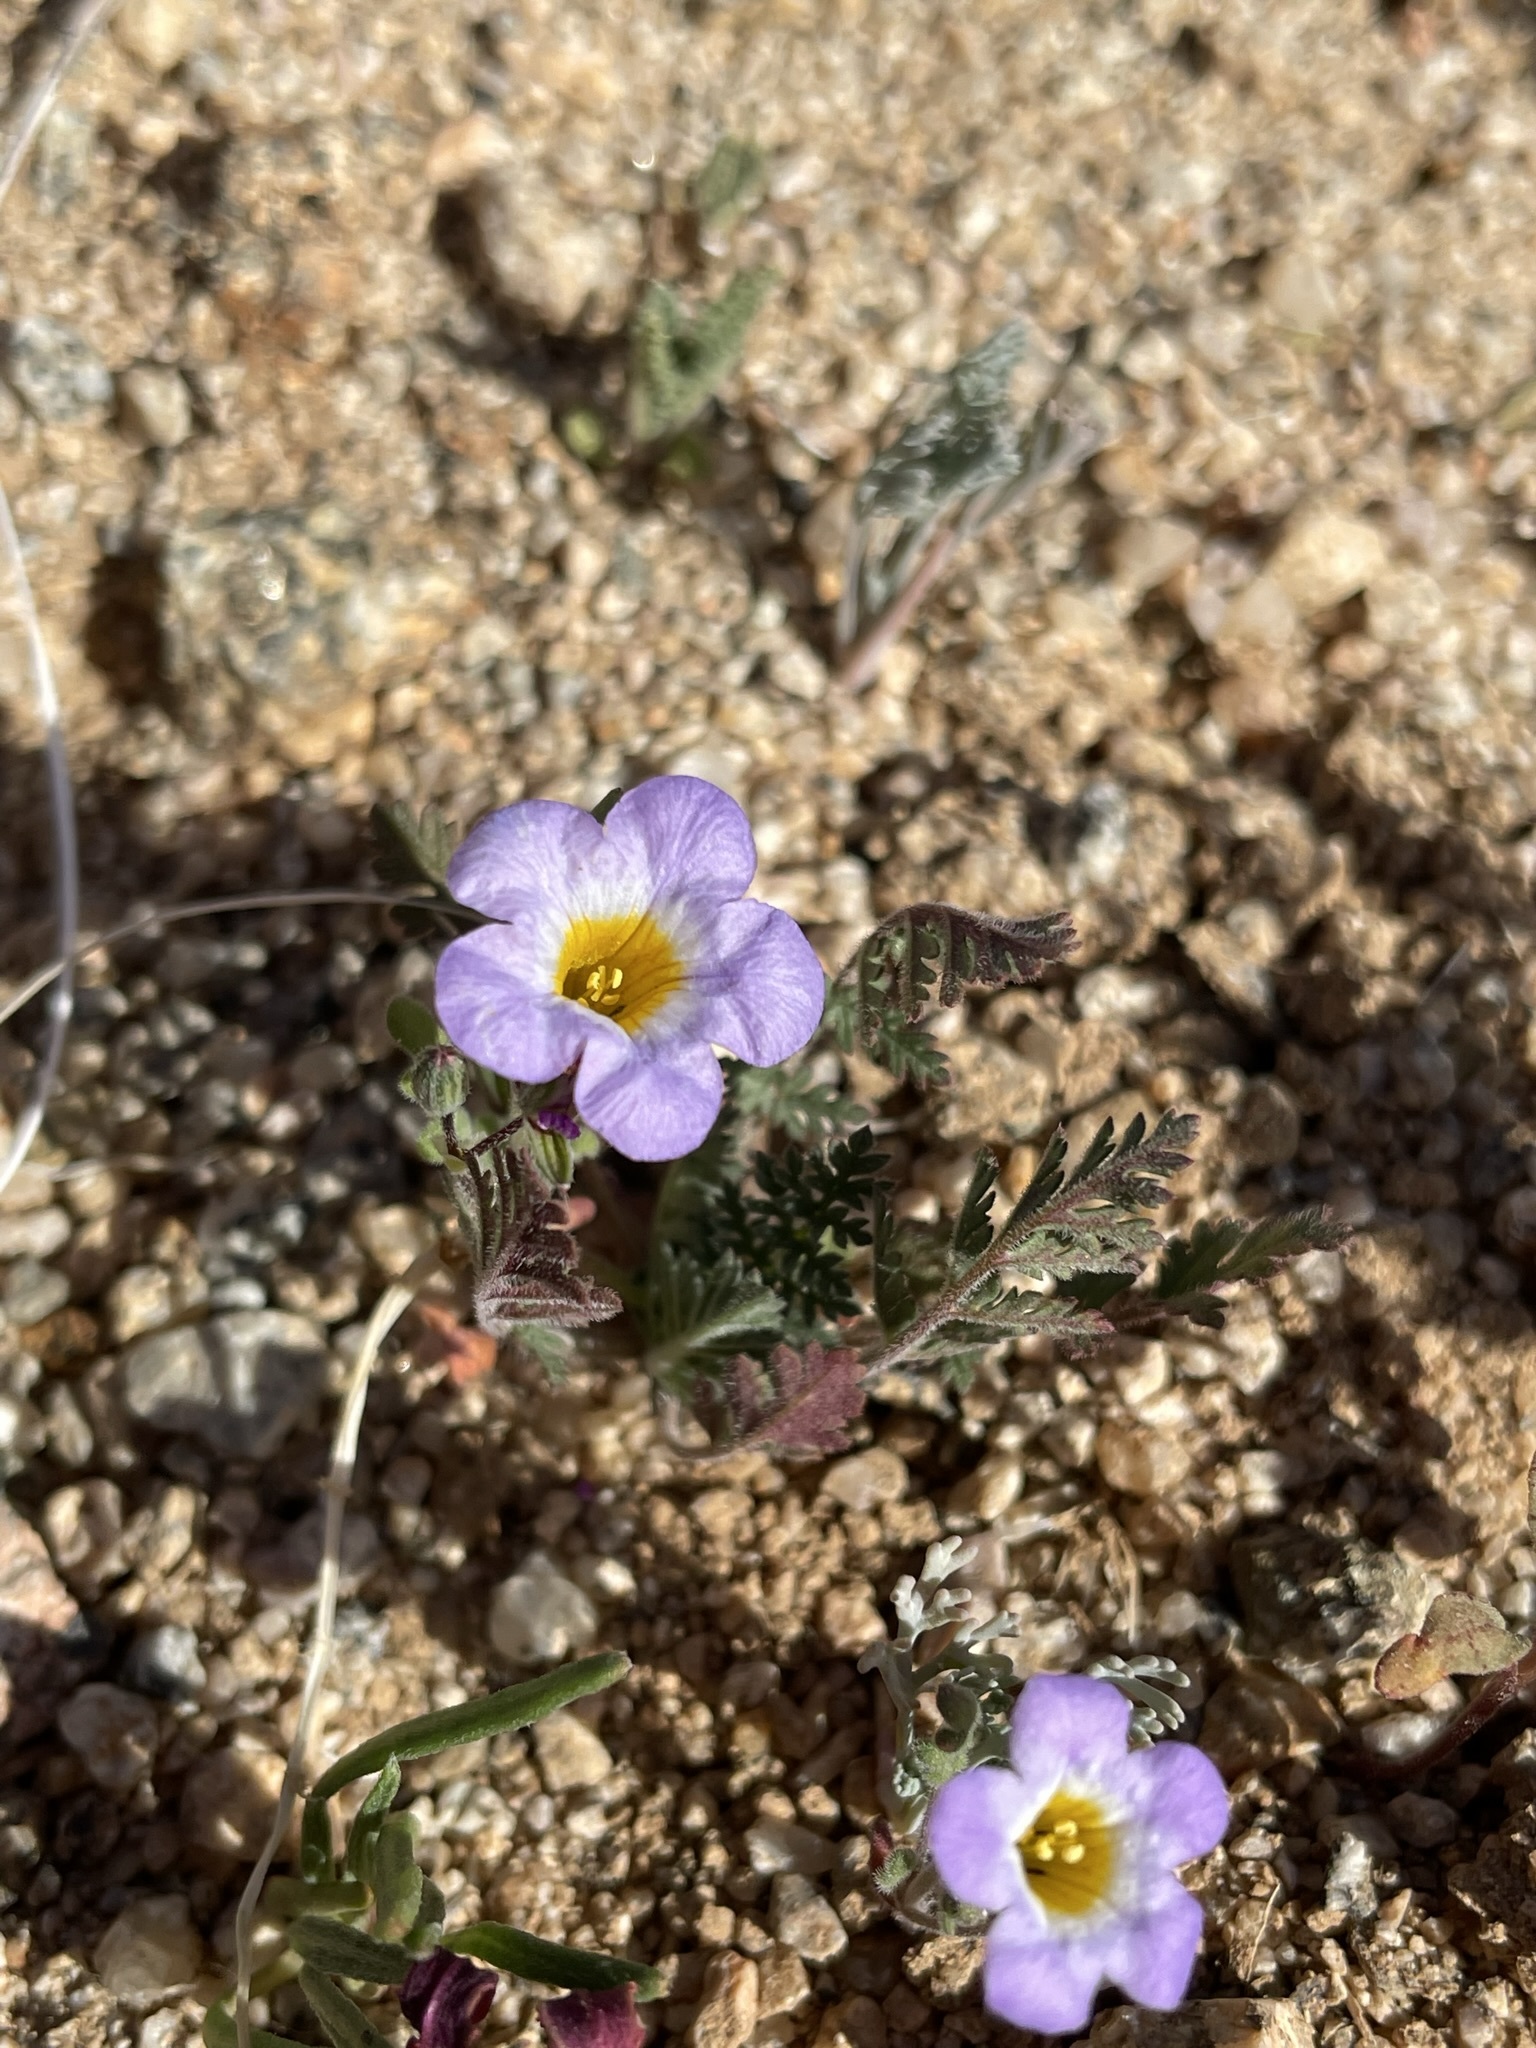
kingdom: Plantae
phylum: Tracheophyta
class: Magnoliopsida
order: Boraginales
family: Hydrophyllaceae
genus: Phacelia
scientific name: Phacelia fremontii
